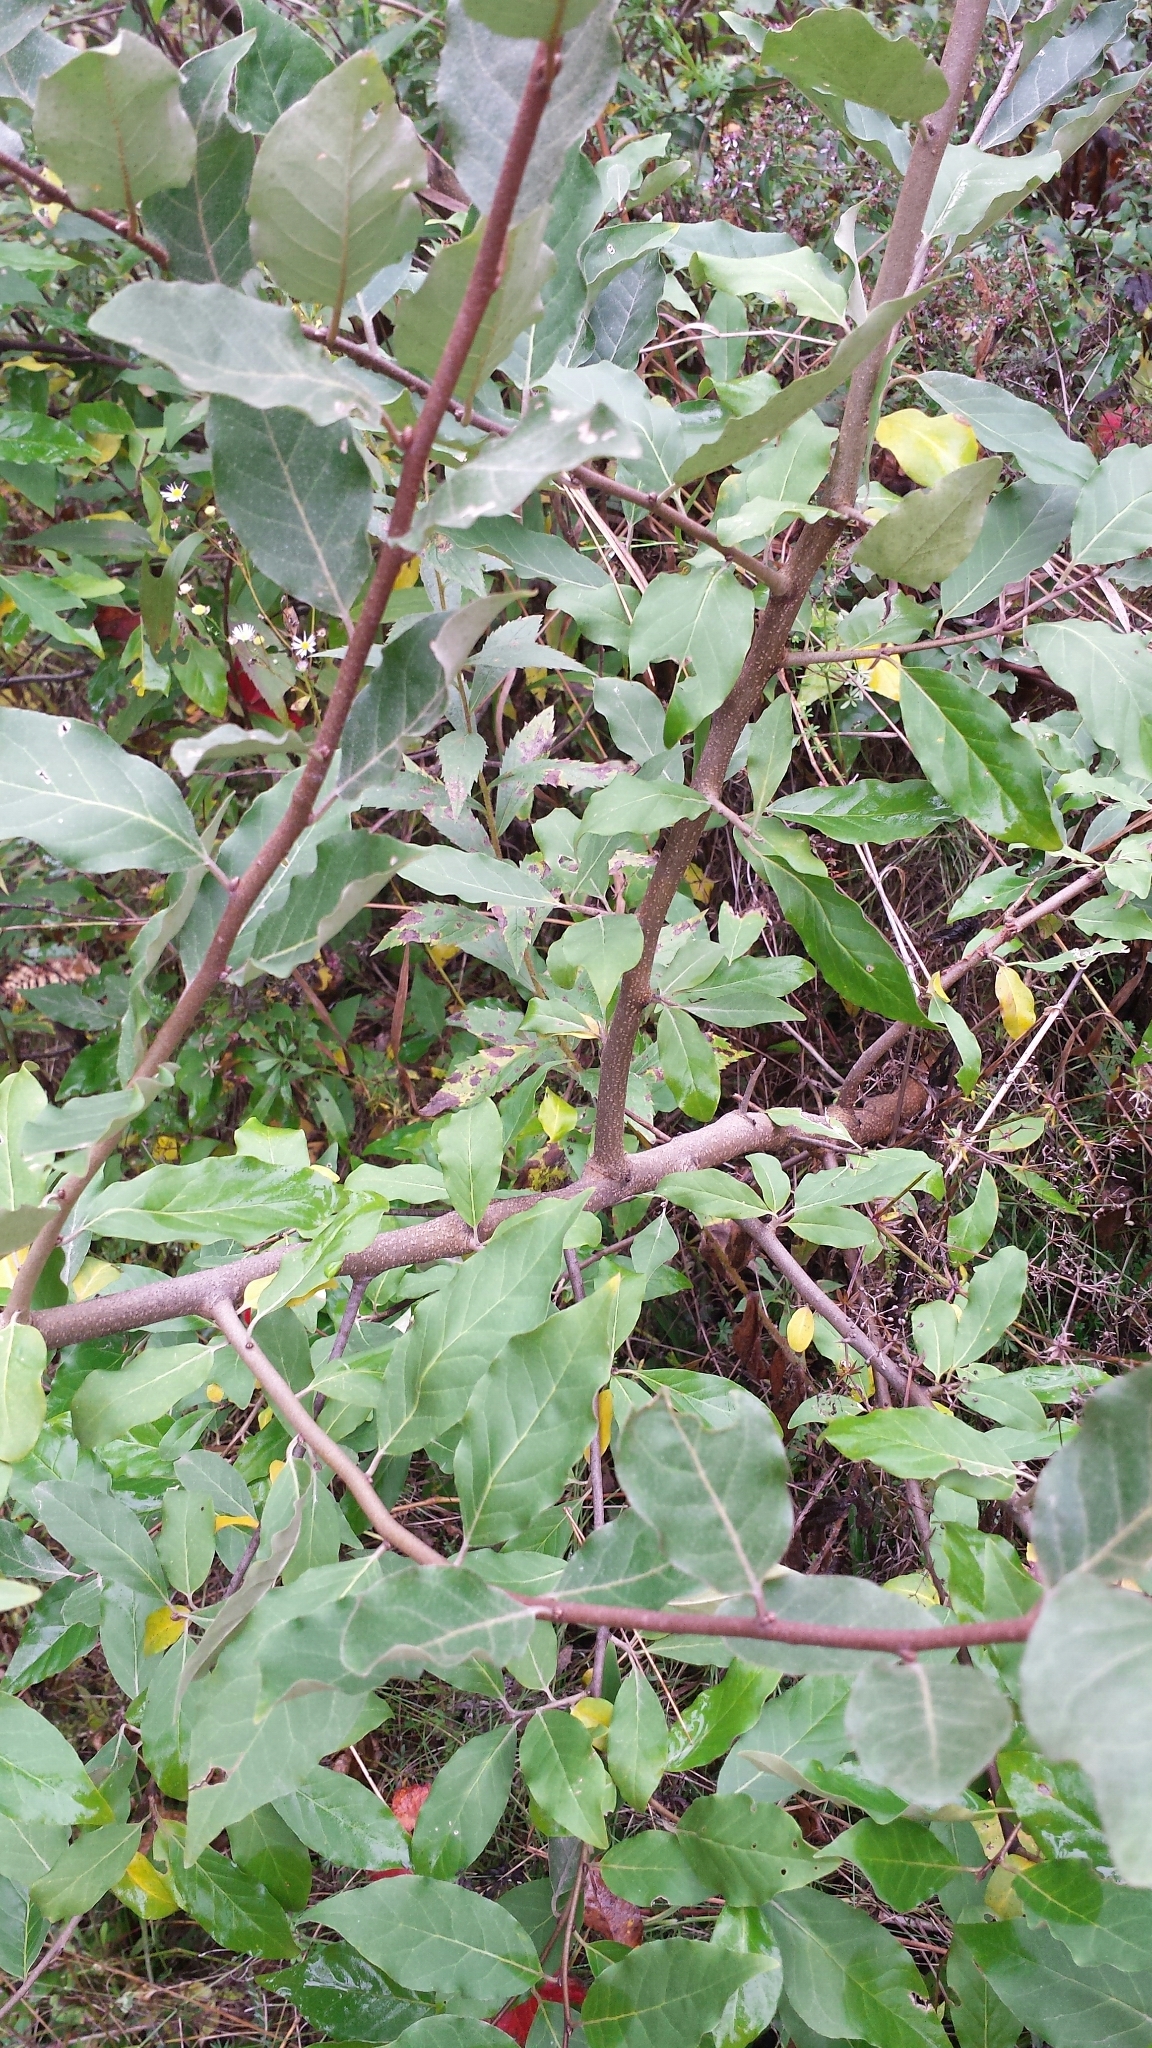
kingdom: Plantae
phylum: Tracheophyta
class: Magnoliopsida
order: Rosales
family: Elaeagnaceae
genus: Elaeagnus
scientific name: Elaeagnus umbellata
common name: Autumn olive
